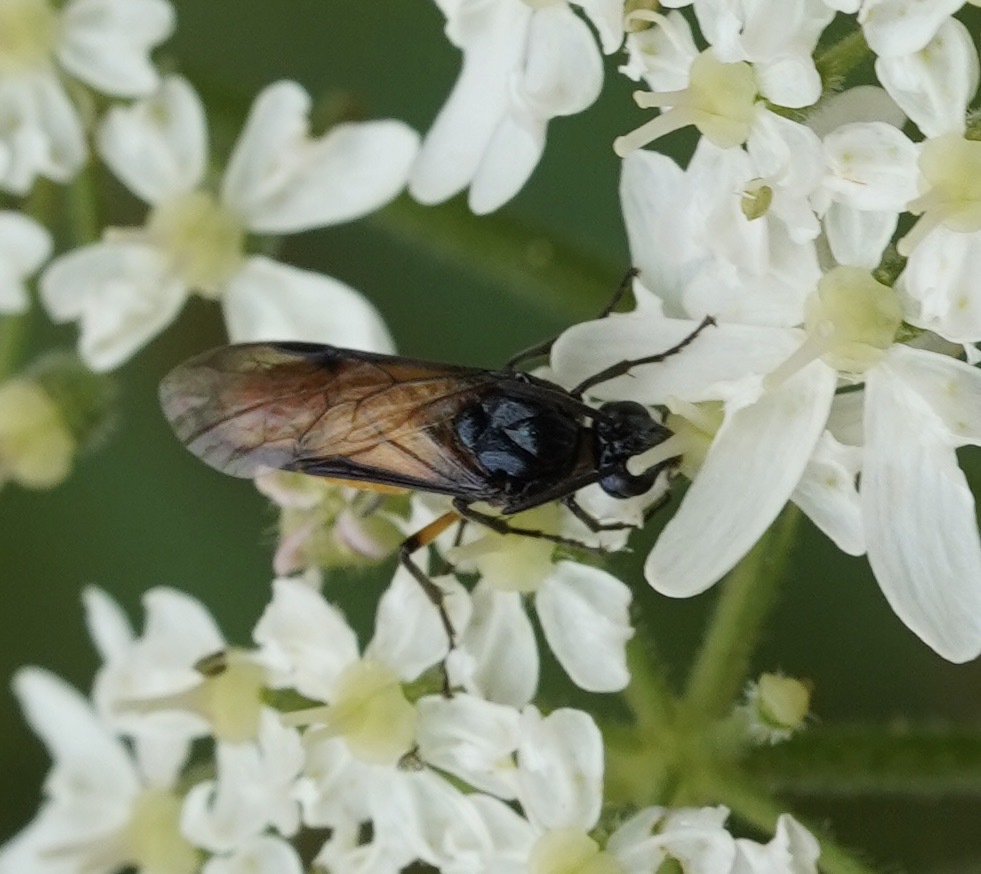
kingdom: Animalia
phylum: Arthropoda
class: Insecta
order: Hymenoptera
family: Argidae
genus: Arge
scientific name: Arge pagana
